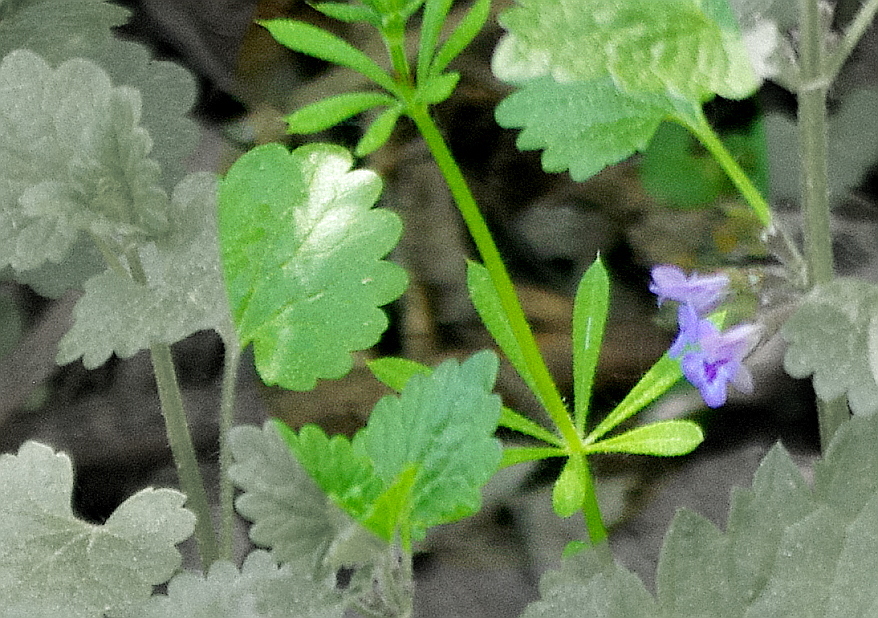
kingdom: Plantae
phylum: Tracheophyta
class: Magnoliopsida
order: Gentianales
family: Rubiaceae
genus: Galium
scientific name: Galium aparine
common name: Cleavers
